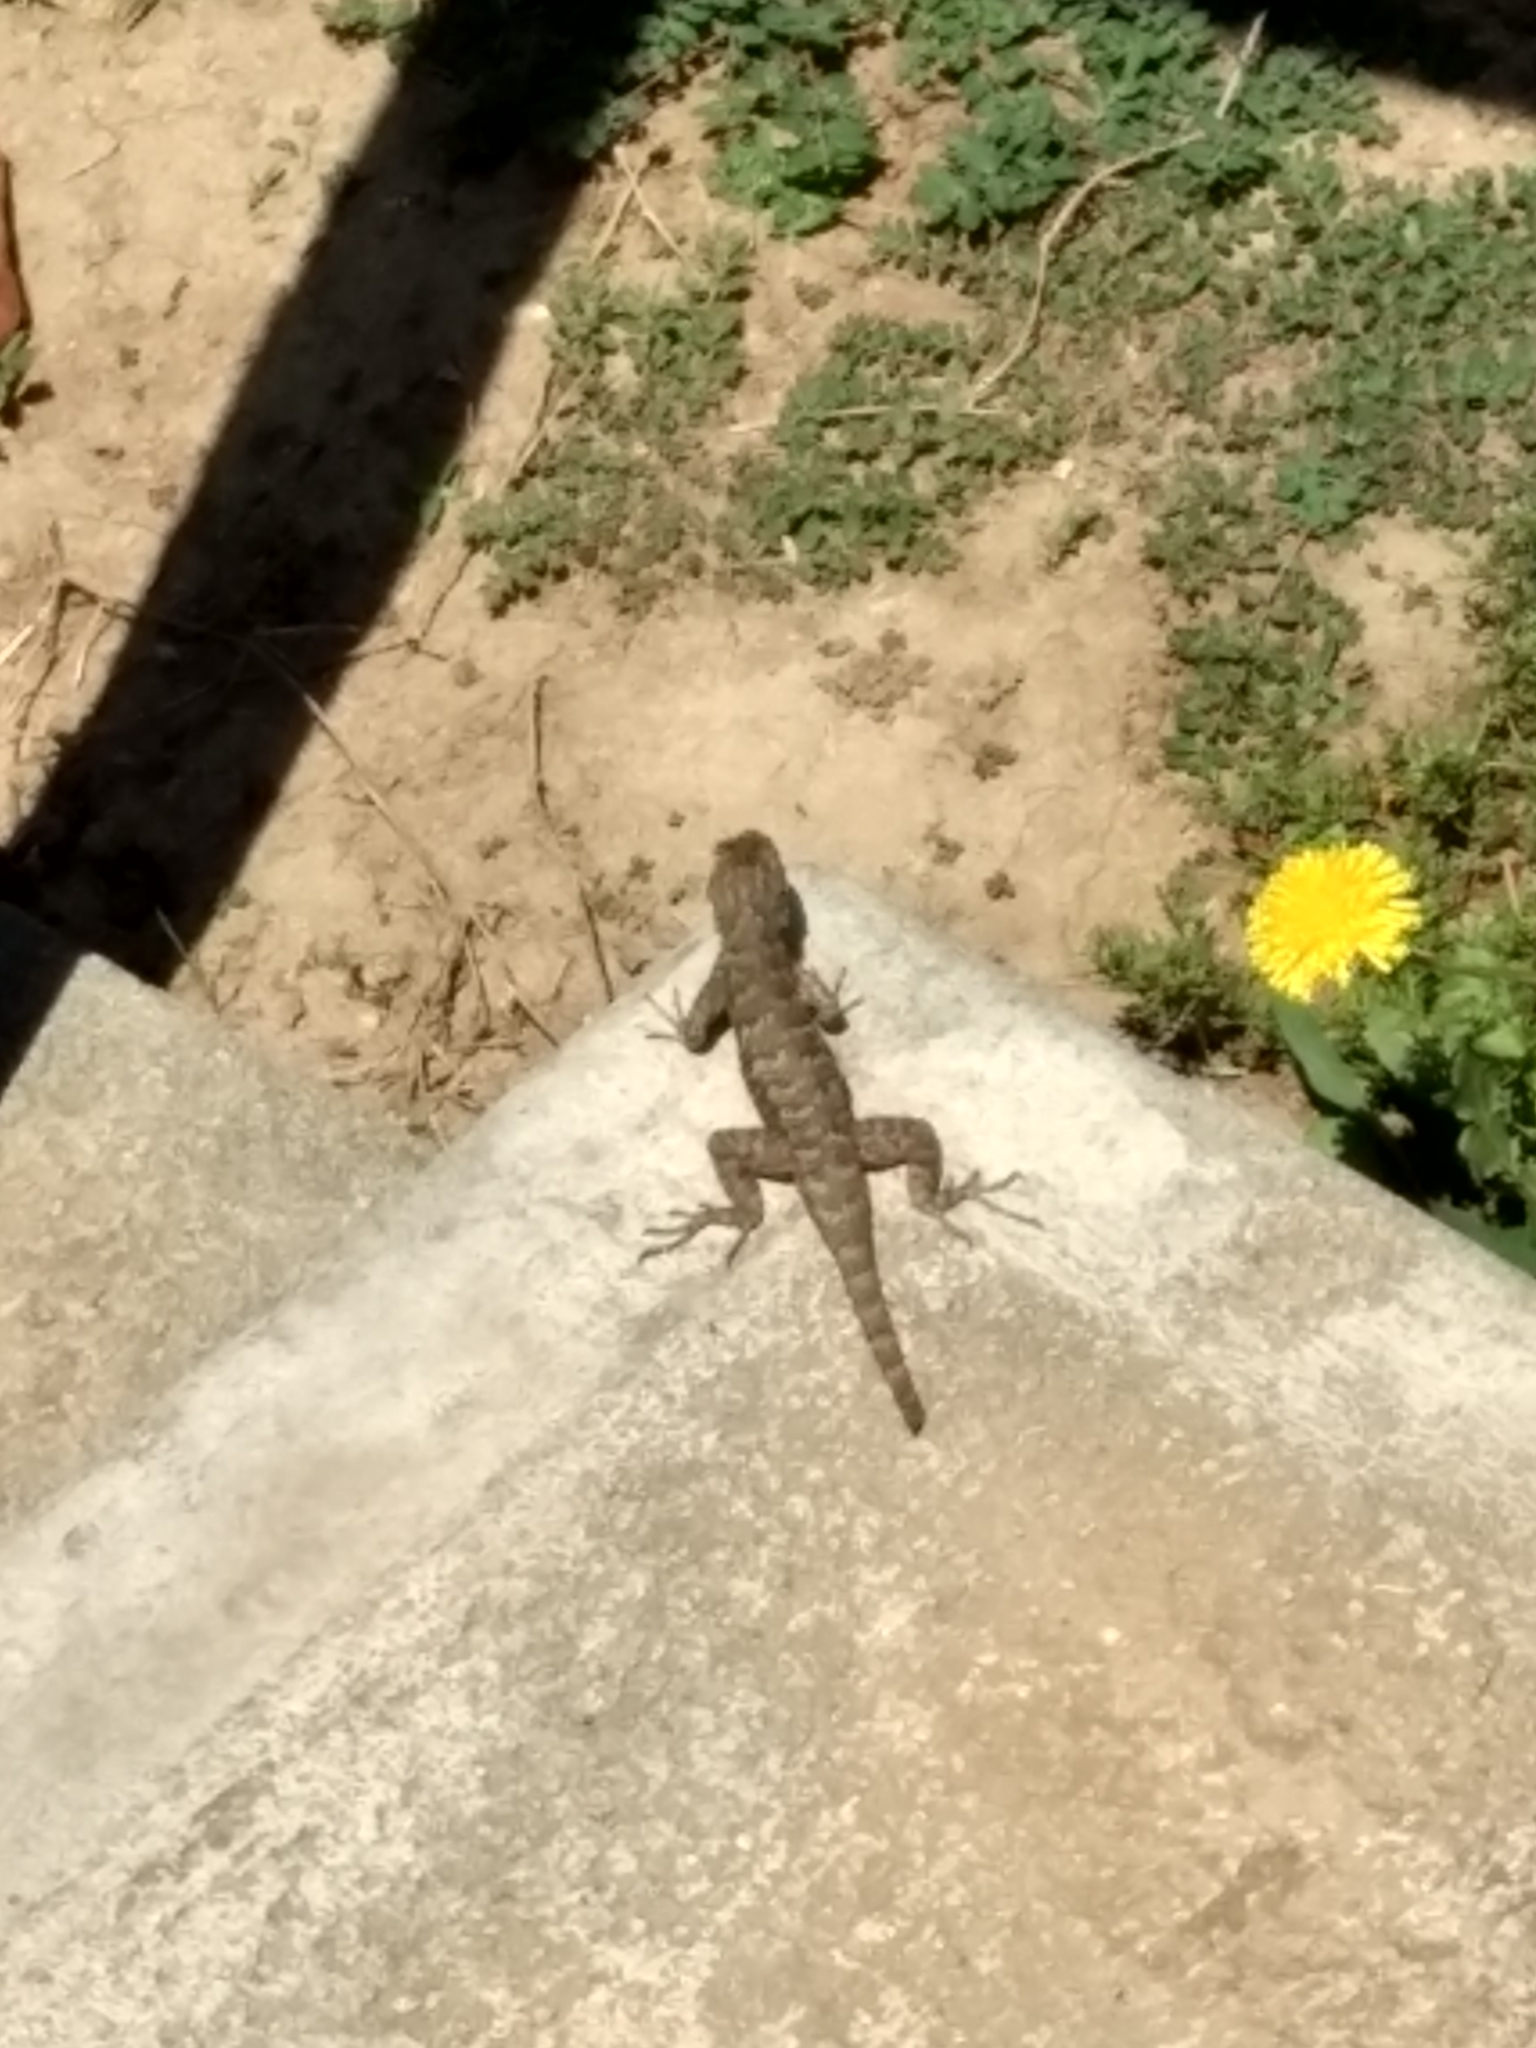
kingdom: Animalia
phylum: Chordata
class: Squamata
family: Phrynosomatidae
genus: Sceloporus
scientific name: Sceloporus occidentalis
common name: Western fence lizard
